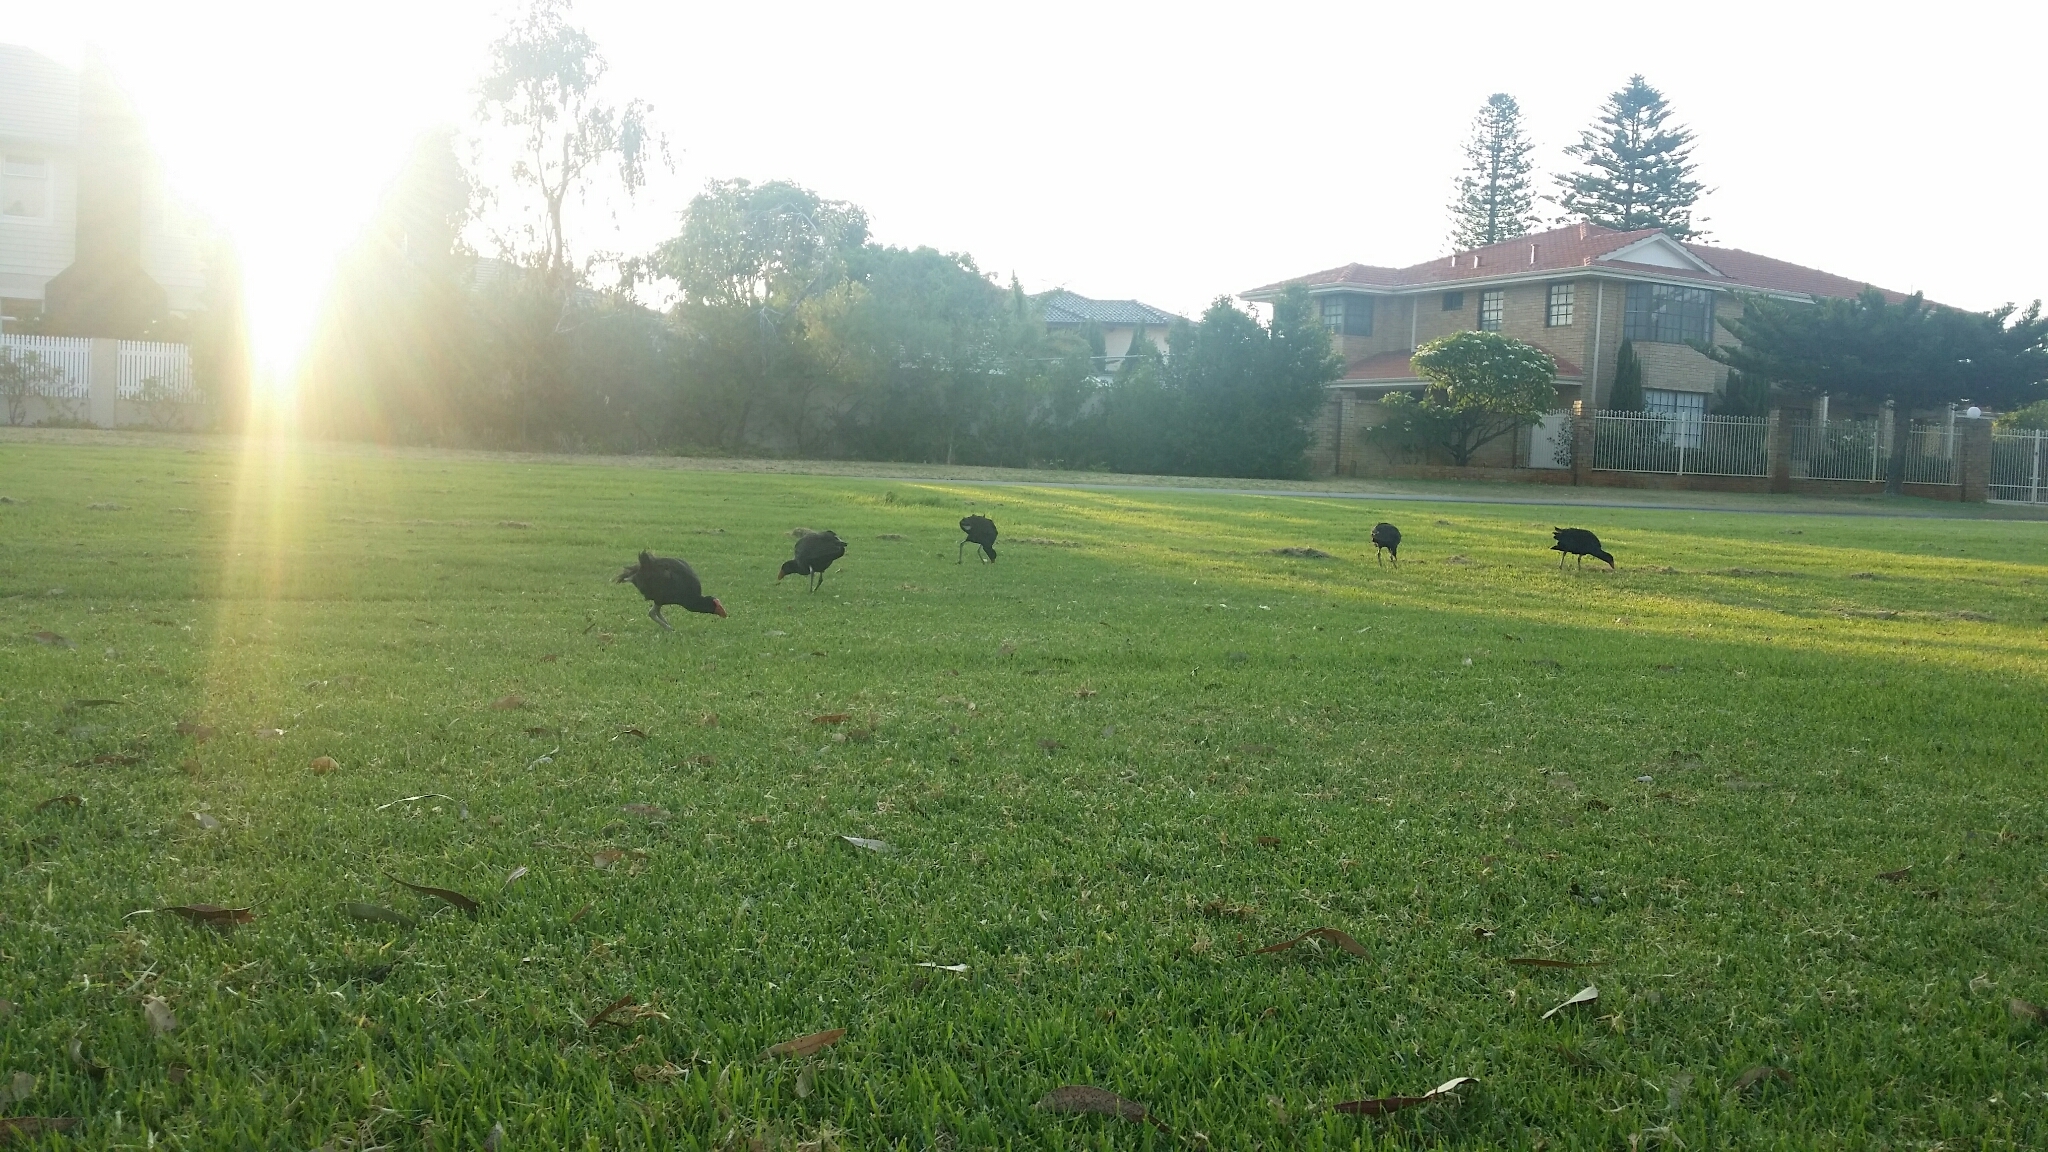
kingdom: Animalia
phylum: Chordata
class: Aves
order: Gruiformes
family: Rallidae
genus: Porphyrio
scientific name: Porphyrio melanotus
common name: Australasian swamphen
